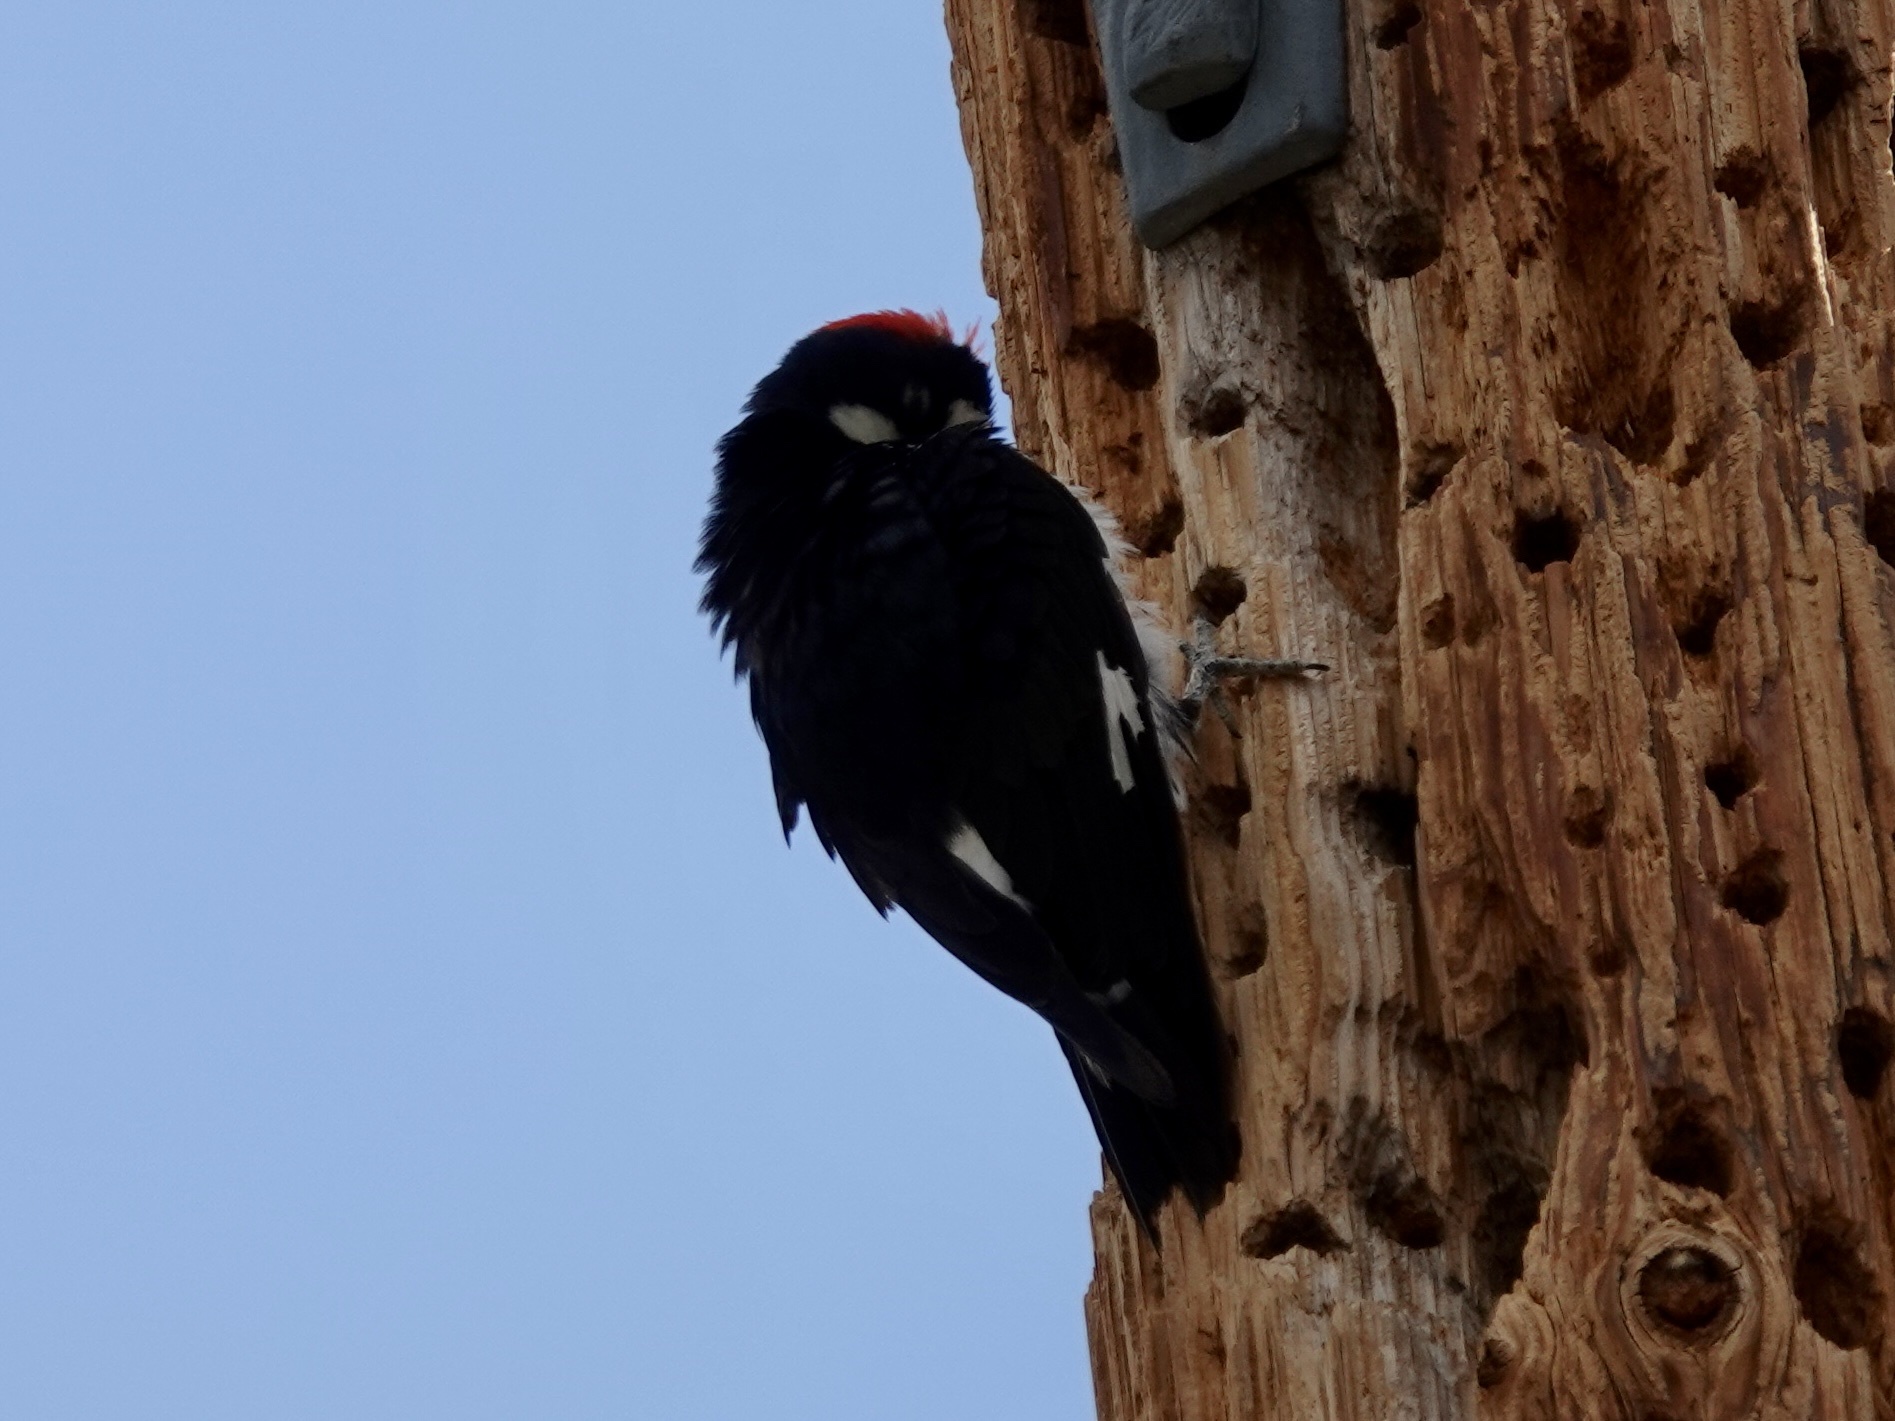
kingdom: Animalia
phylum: Chordata
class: Aves
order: Piciformes
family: Picidae
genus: Melanerpes
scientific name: Melanerpes formicivorus
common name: Acorn woodpecker
